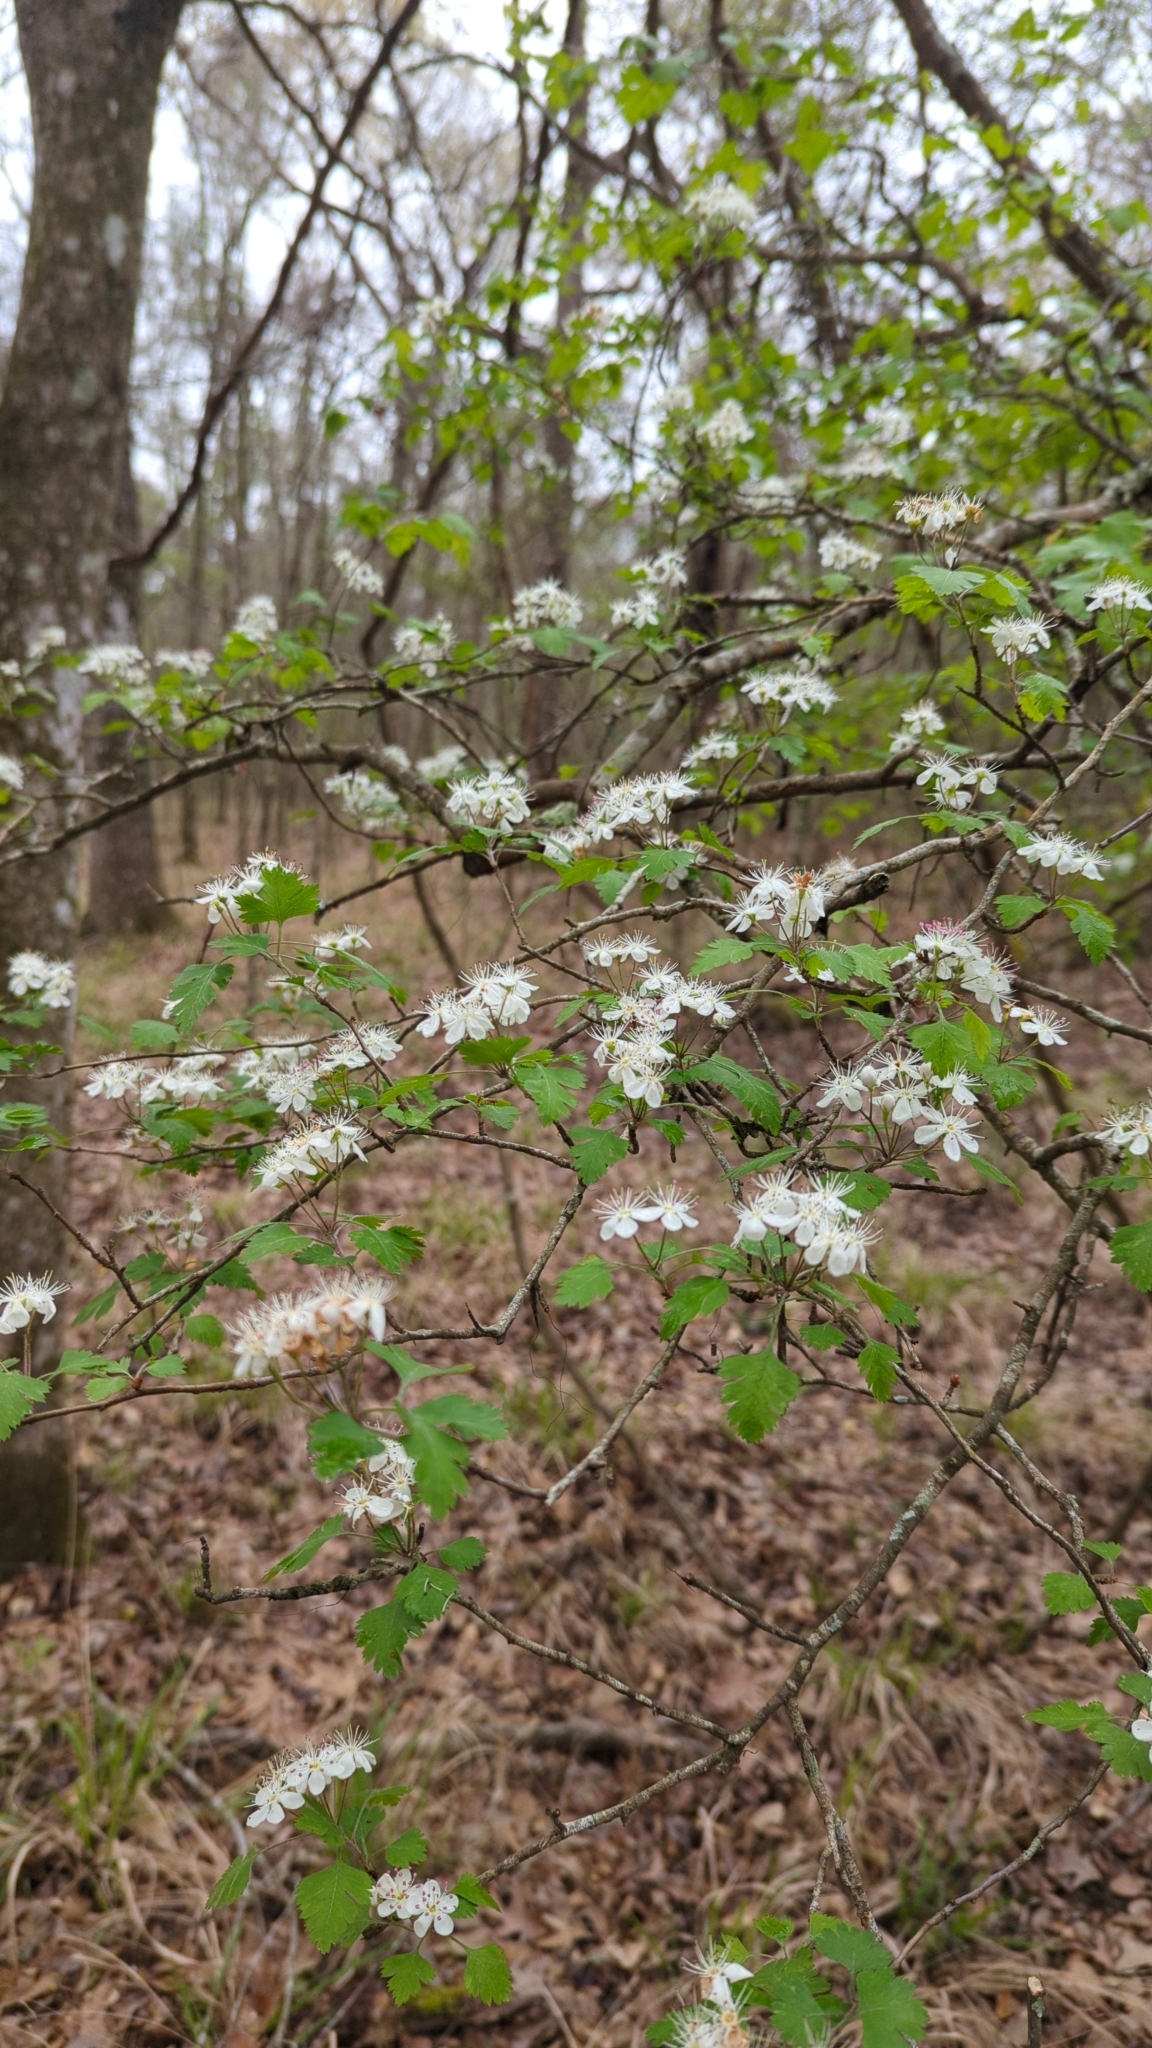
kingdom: Plantae
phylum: Tracheophyta
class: Magnoliopsida
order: Rosales
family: Rosaceae
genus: Crataegus
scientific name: Crataegus marshallii
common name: Parsley-hawthorn
